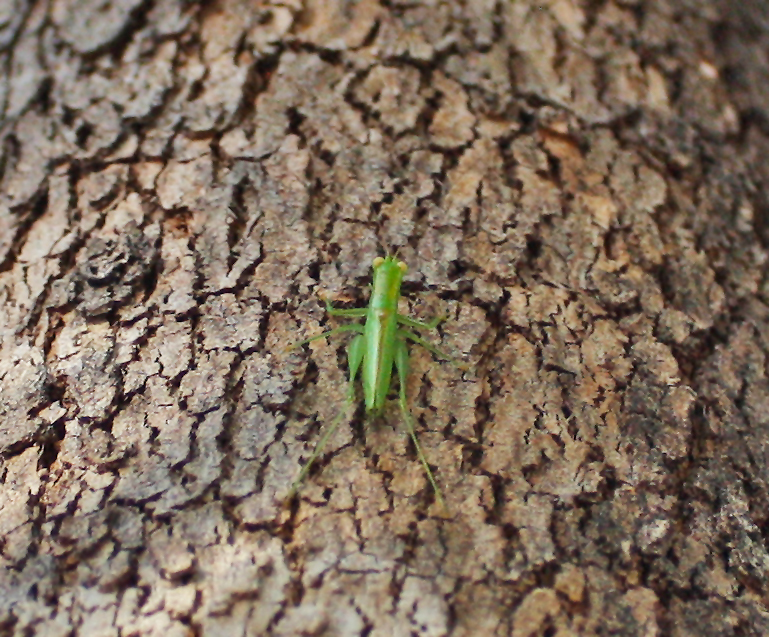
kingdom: Animalia
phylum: Arthropoda
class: Insecta
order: Orthoptera
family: Tettigoniidae
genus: Austrophlugis
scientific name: Austrophlugis debaari
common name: Debaar's swayer
